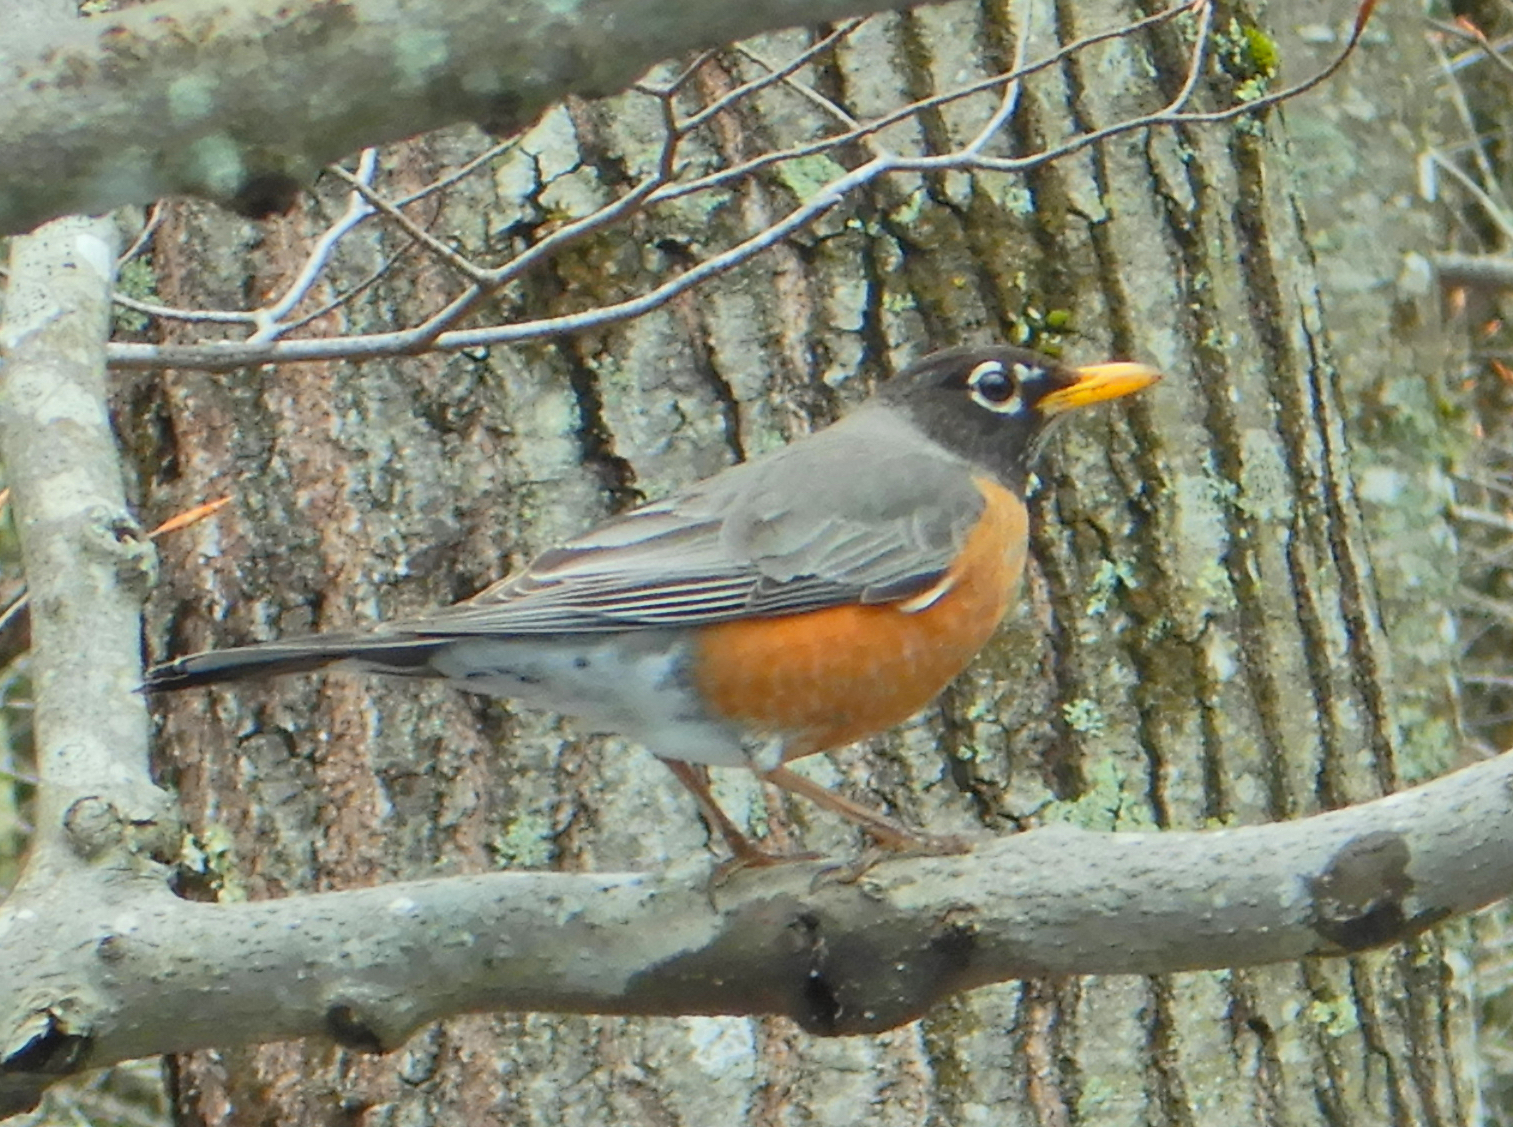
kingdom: Animalia
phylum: Chordata
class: Aves
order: Passeriformes
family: Turdidae
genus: Turdus
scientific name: Turdus migratorius
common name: American robin
